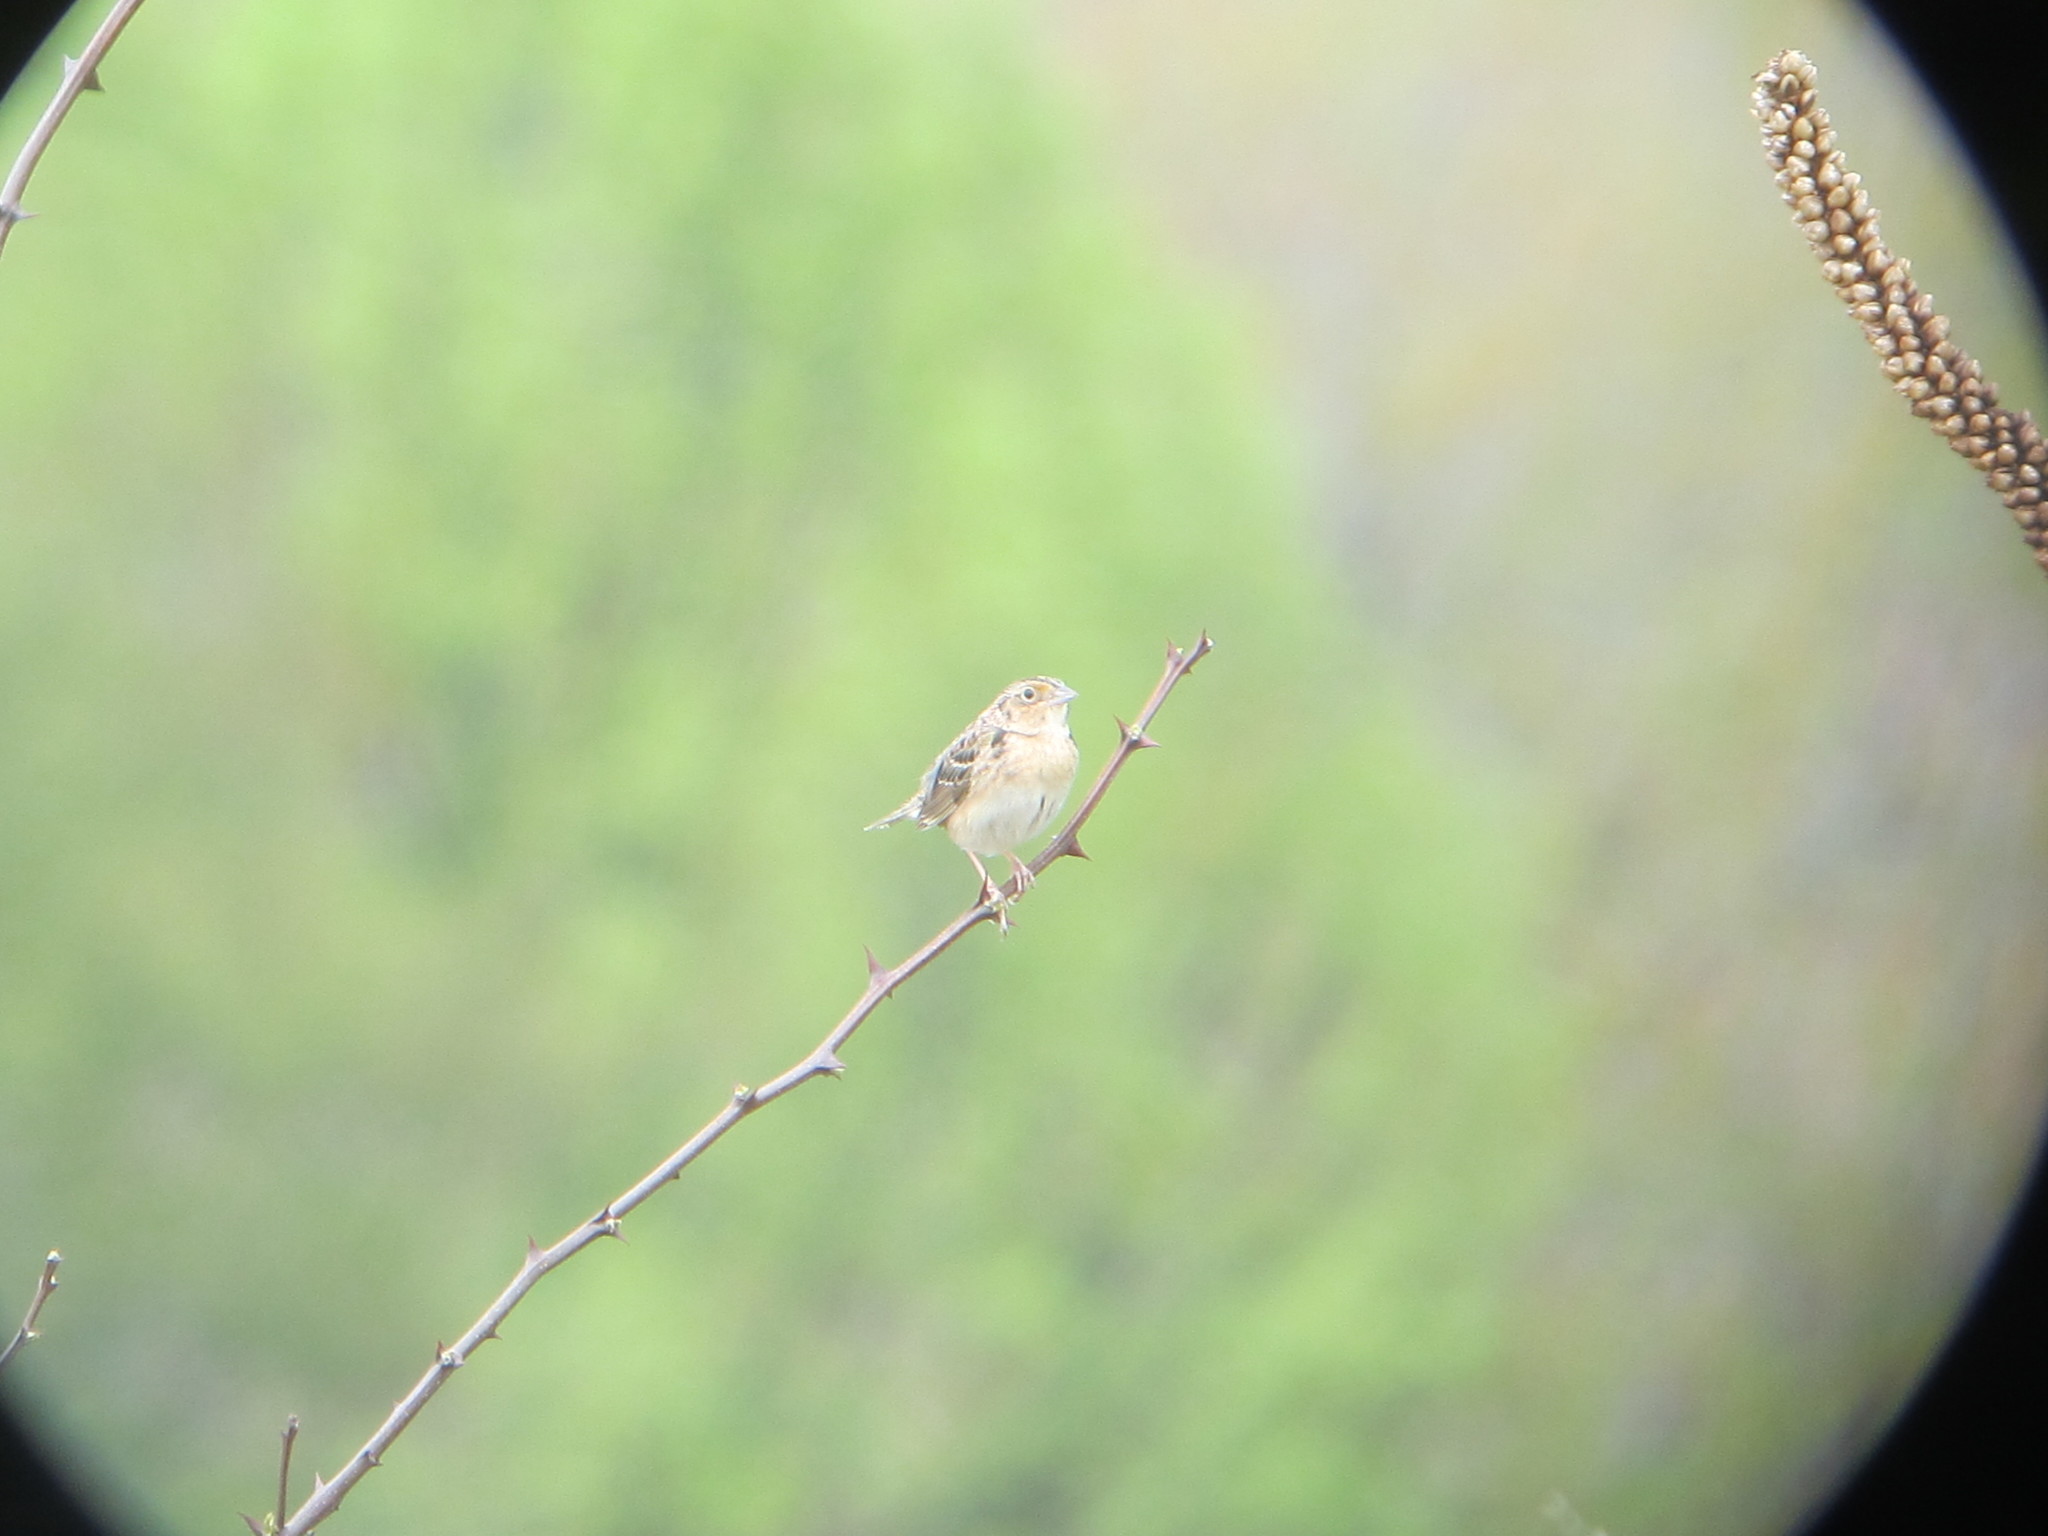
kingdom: Animalia
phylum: Chordata
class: Aves
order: Passeriformes
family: Passerellidae
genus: Ammodramus
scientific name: Ammodramus savannarum
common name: Grasshopper sparrow
